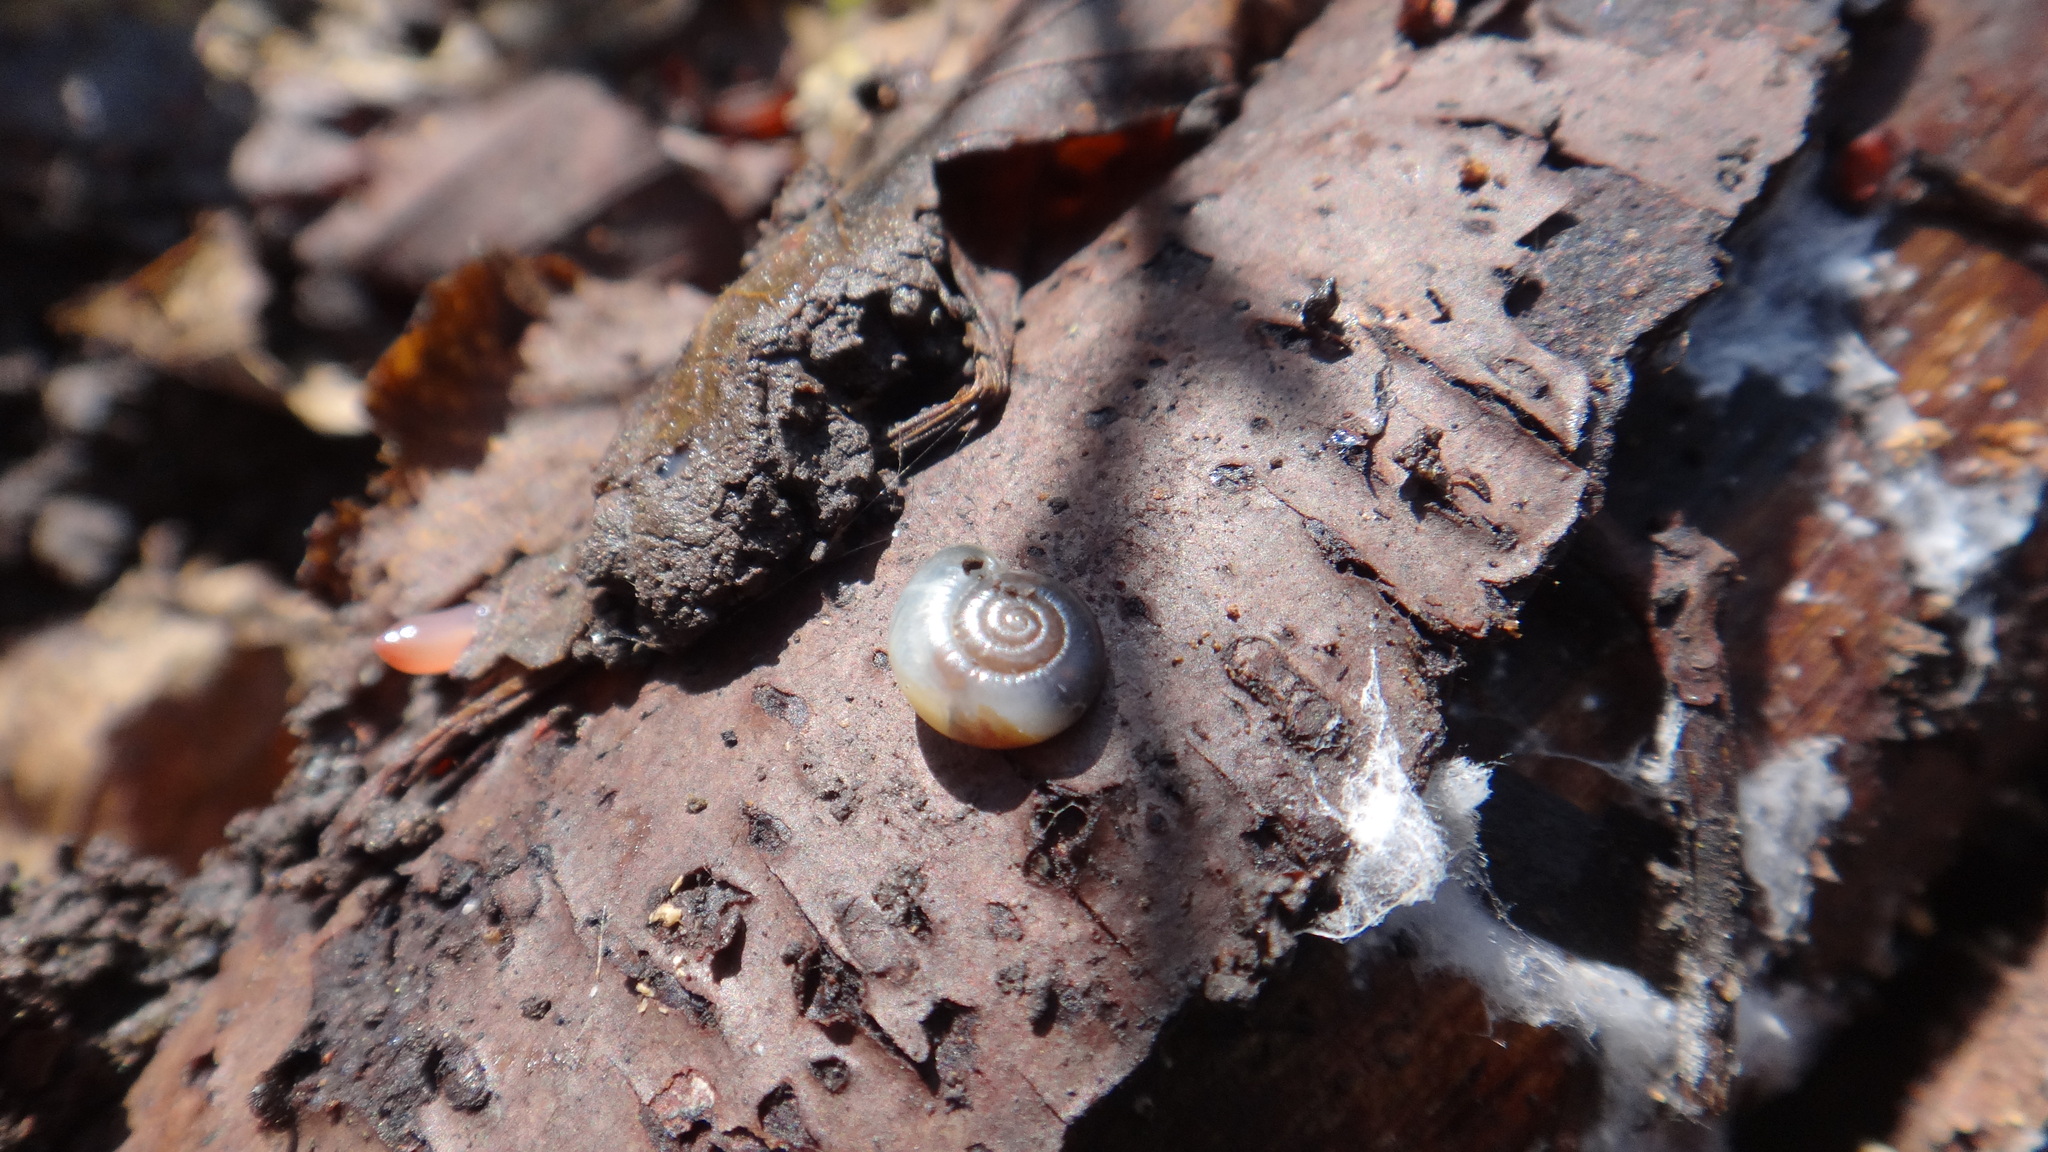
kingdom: Animalia
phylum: Mollusca
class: Gastropoda
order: Stylommatophora
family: Gastrodontidae
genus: Aegopinella
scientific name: Aegopinella minor
